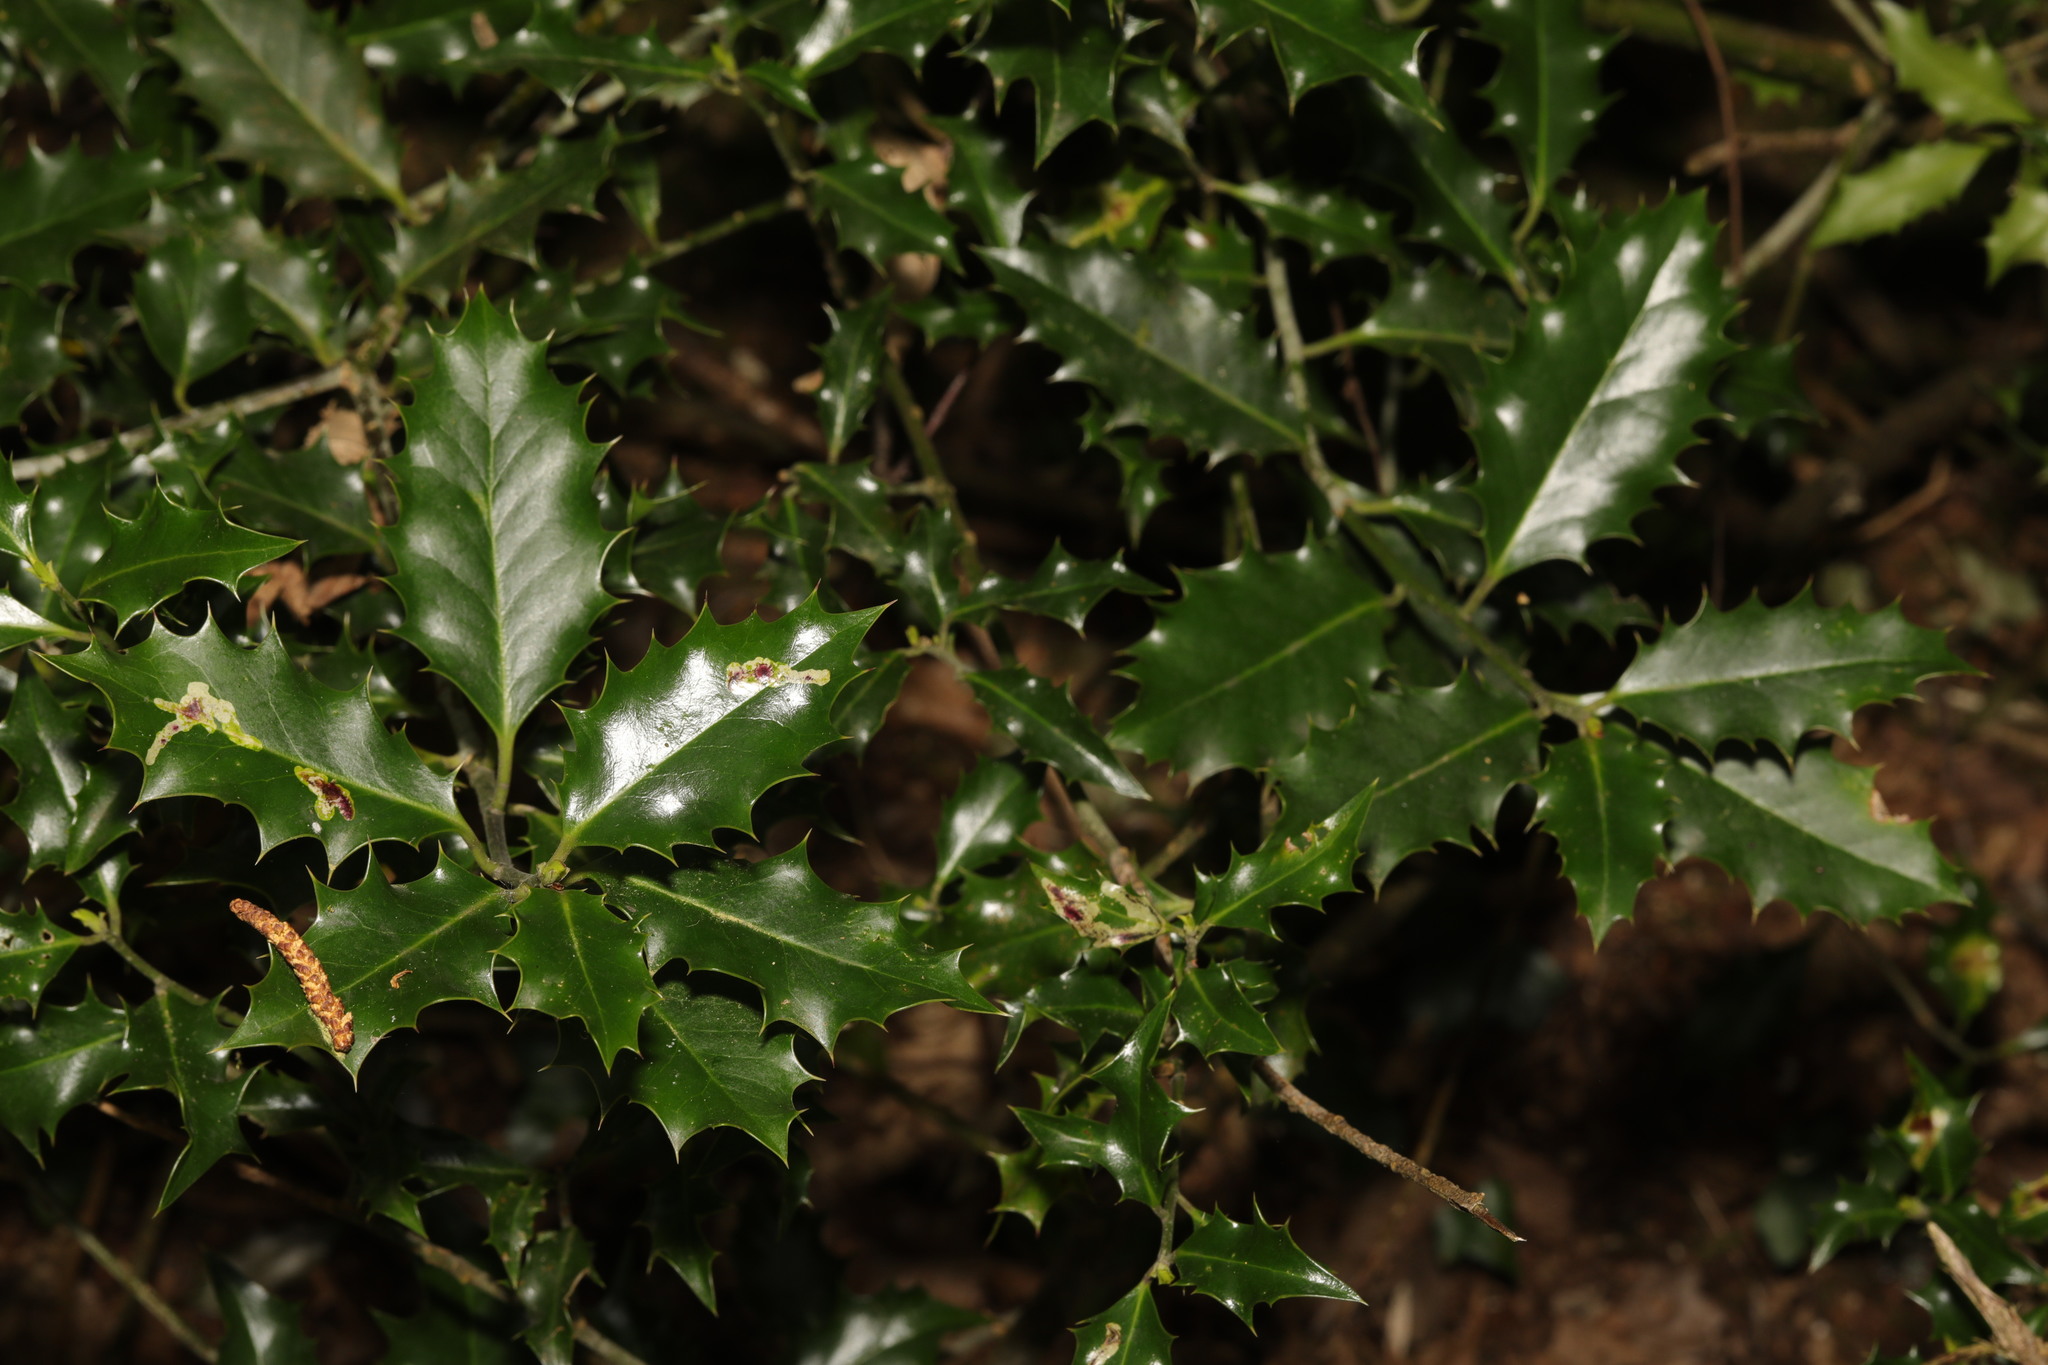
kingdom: Plantae
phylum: Tracheophyta
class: Magnoliopsida
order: Aquifoliales
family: Aquifoliaceae
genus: Ilex
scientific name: Ilex aquifolium
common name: English holly
